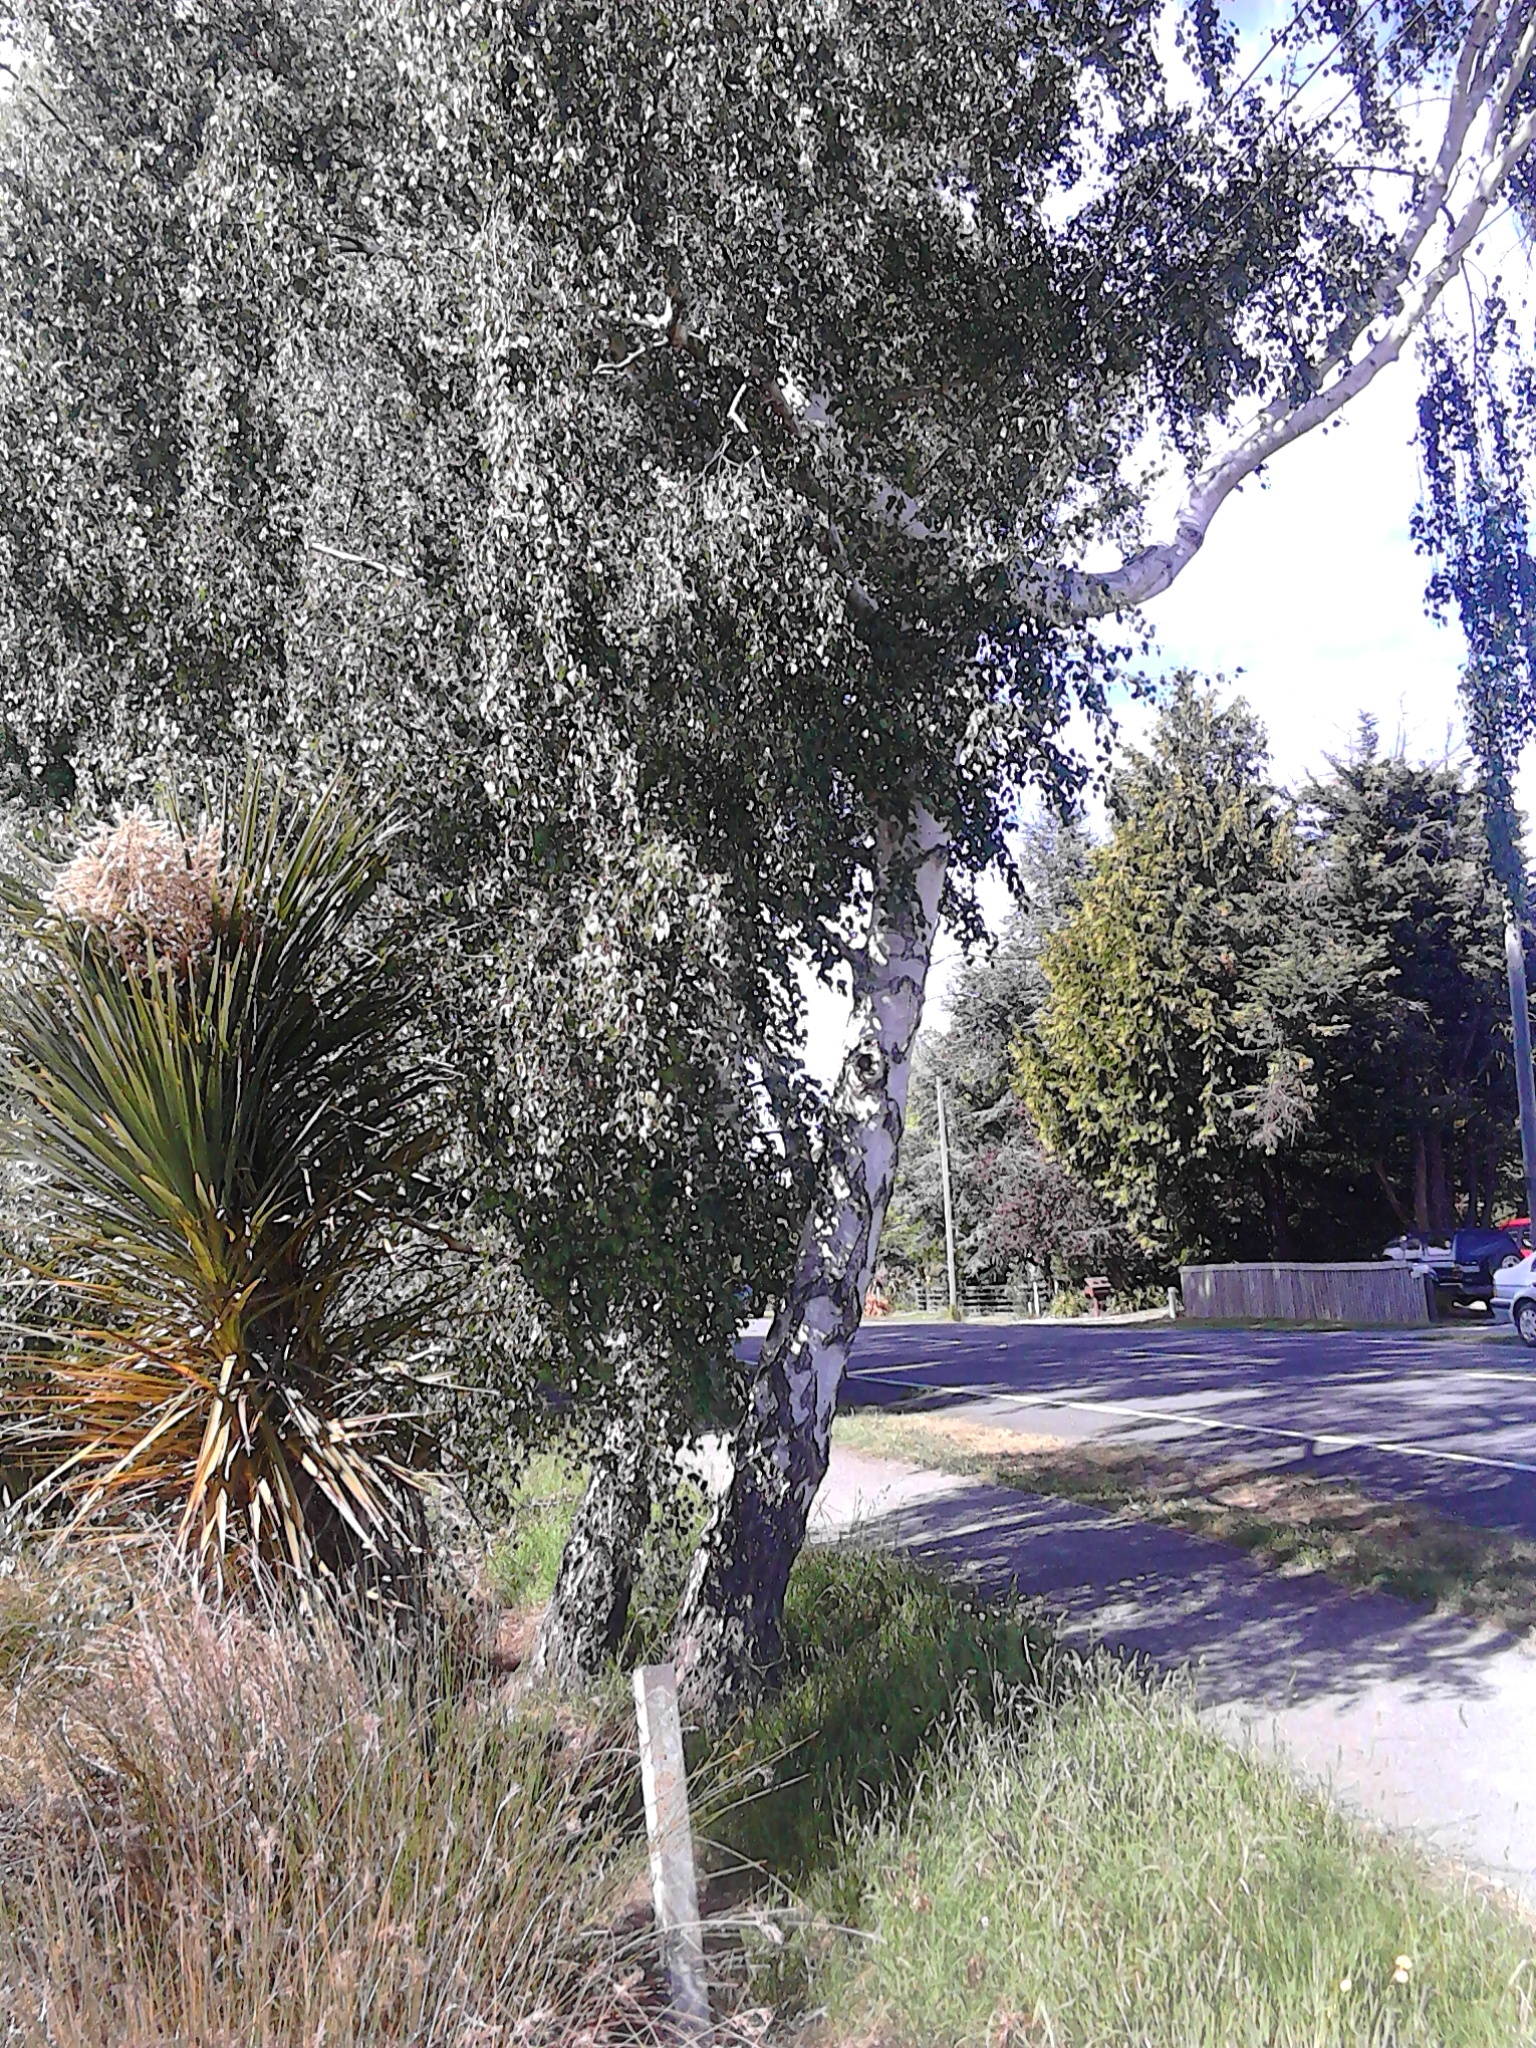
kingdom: Plantae
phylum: Tracheophyta
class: Magnoliopsida
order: Fagales
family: Betulaceae
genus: Betula
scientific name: Betula pendula
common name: Silver birch
